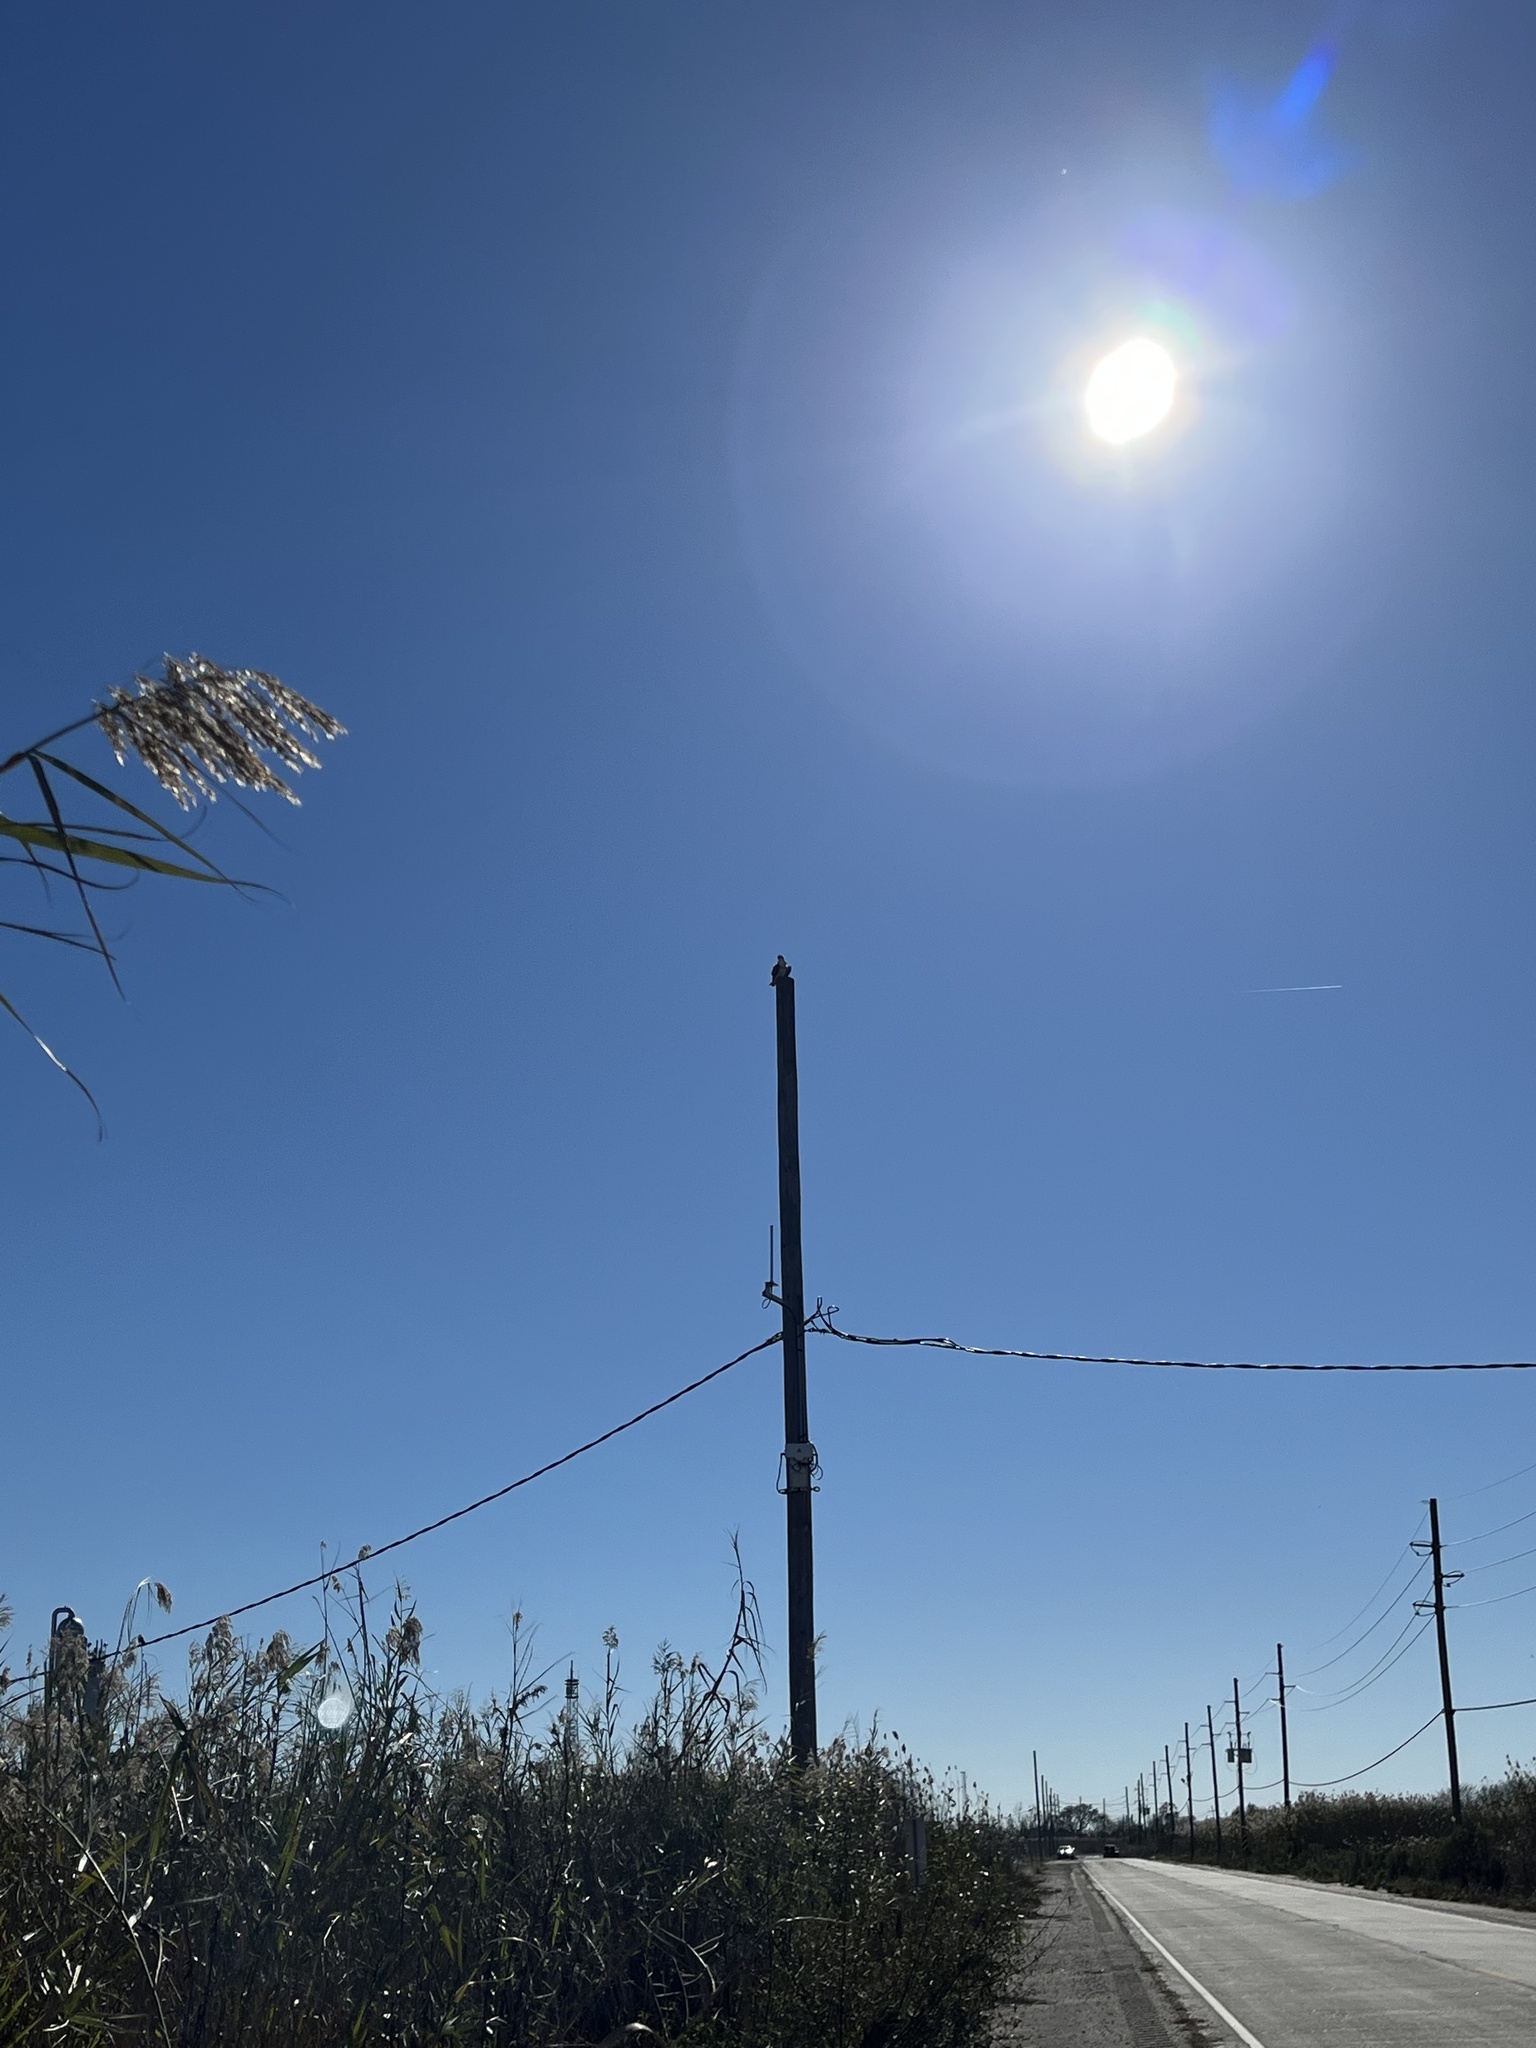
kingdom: Animalia
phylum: Chordata
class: Aves
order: Accipitriformes
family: Pandionidae
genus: Pandion
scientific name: Pandion haliaetus
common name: Osprey
